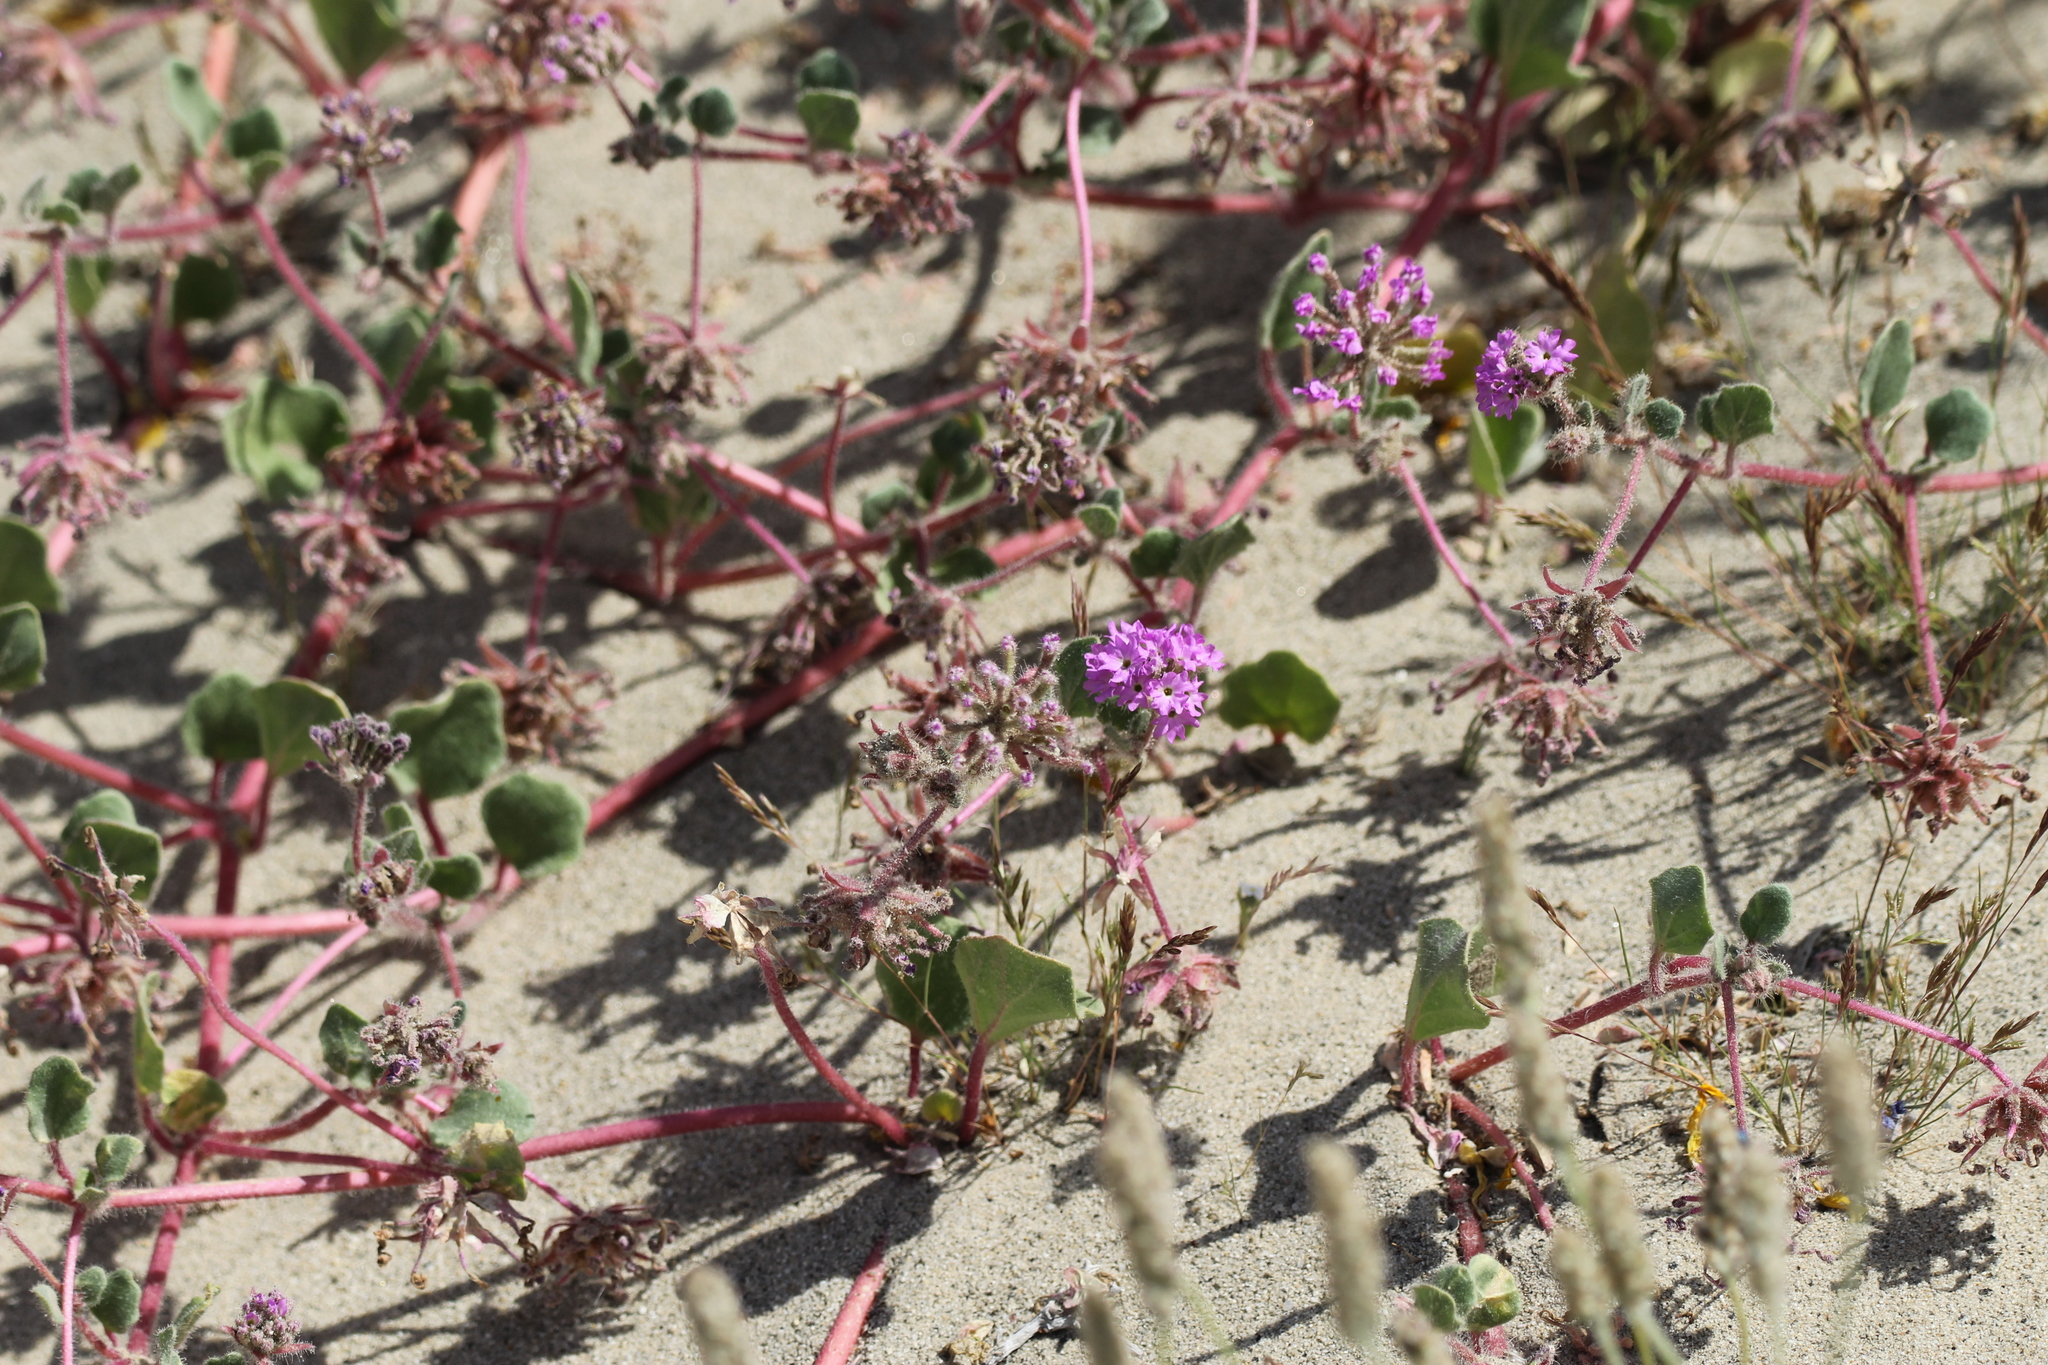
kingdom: Plantae
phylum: Tracheophyta
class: Magnoliopsida
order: Caryophyllales
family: Nyctaginaceae
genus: Abronia
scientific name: Abronia villosa
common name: Desert sand-verbena
